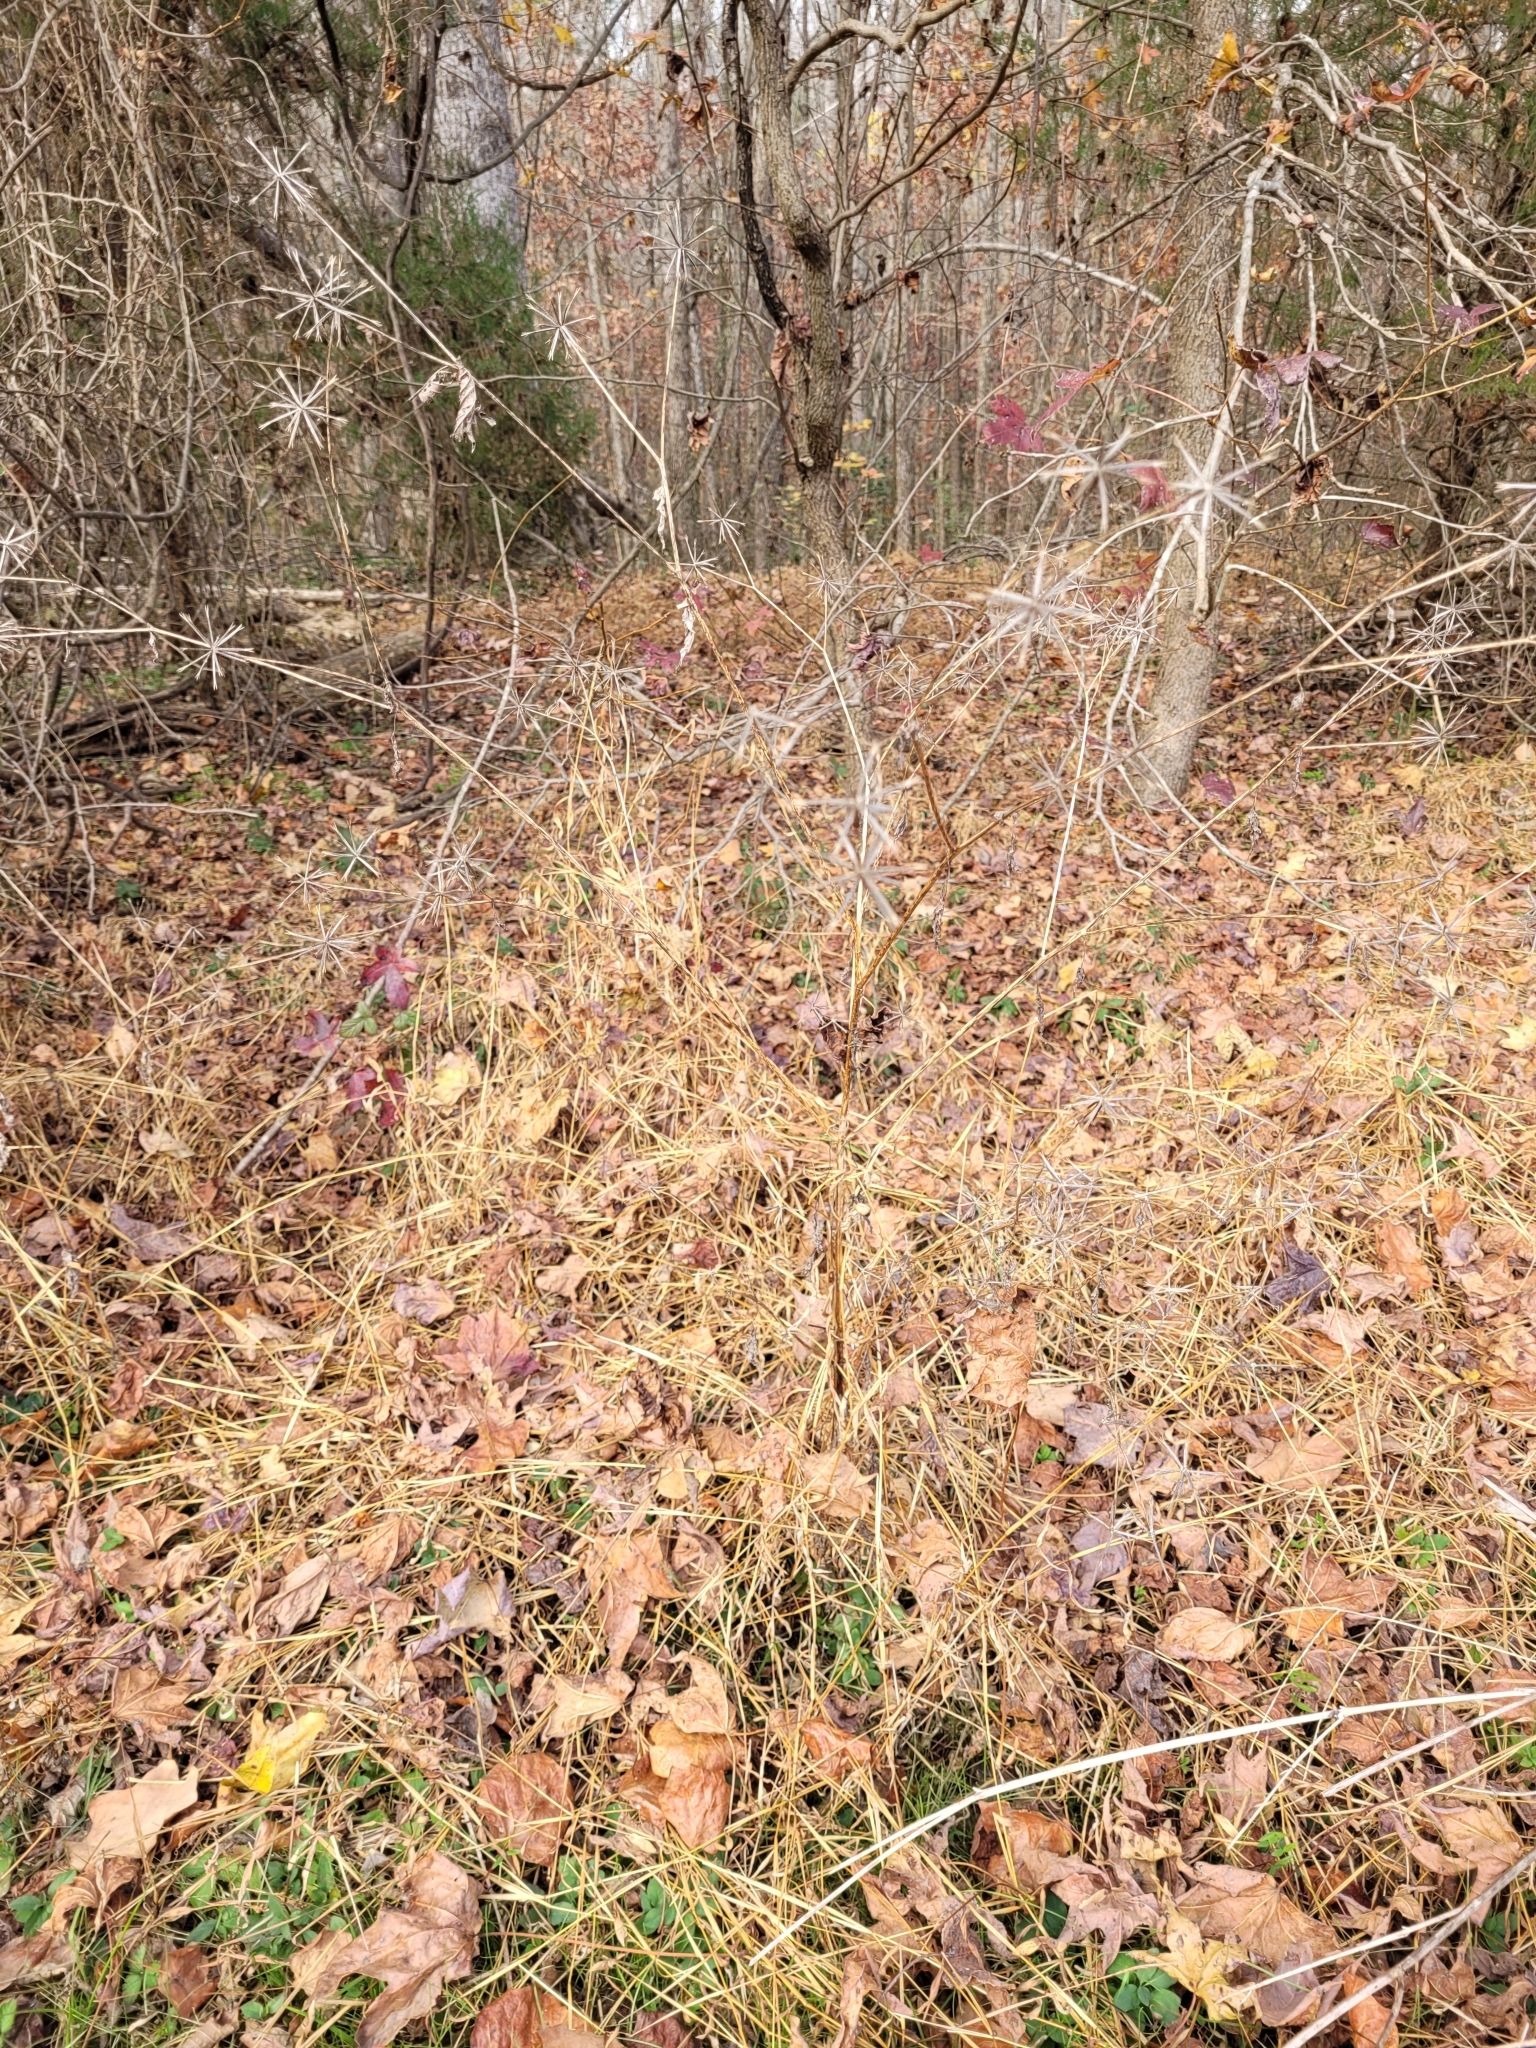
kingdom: Plantae
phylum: Tracheophyta
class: Magnoliopsida
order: Asterales
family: Asteraceae
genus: Bidens
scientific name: Bidens bipinnata
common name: Spanish-needles
